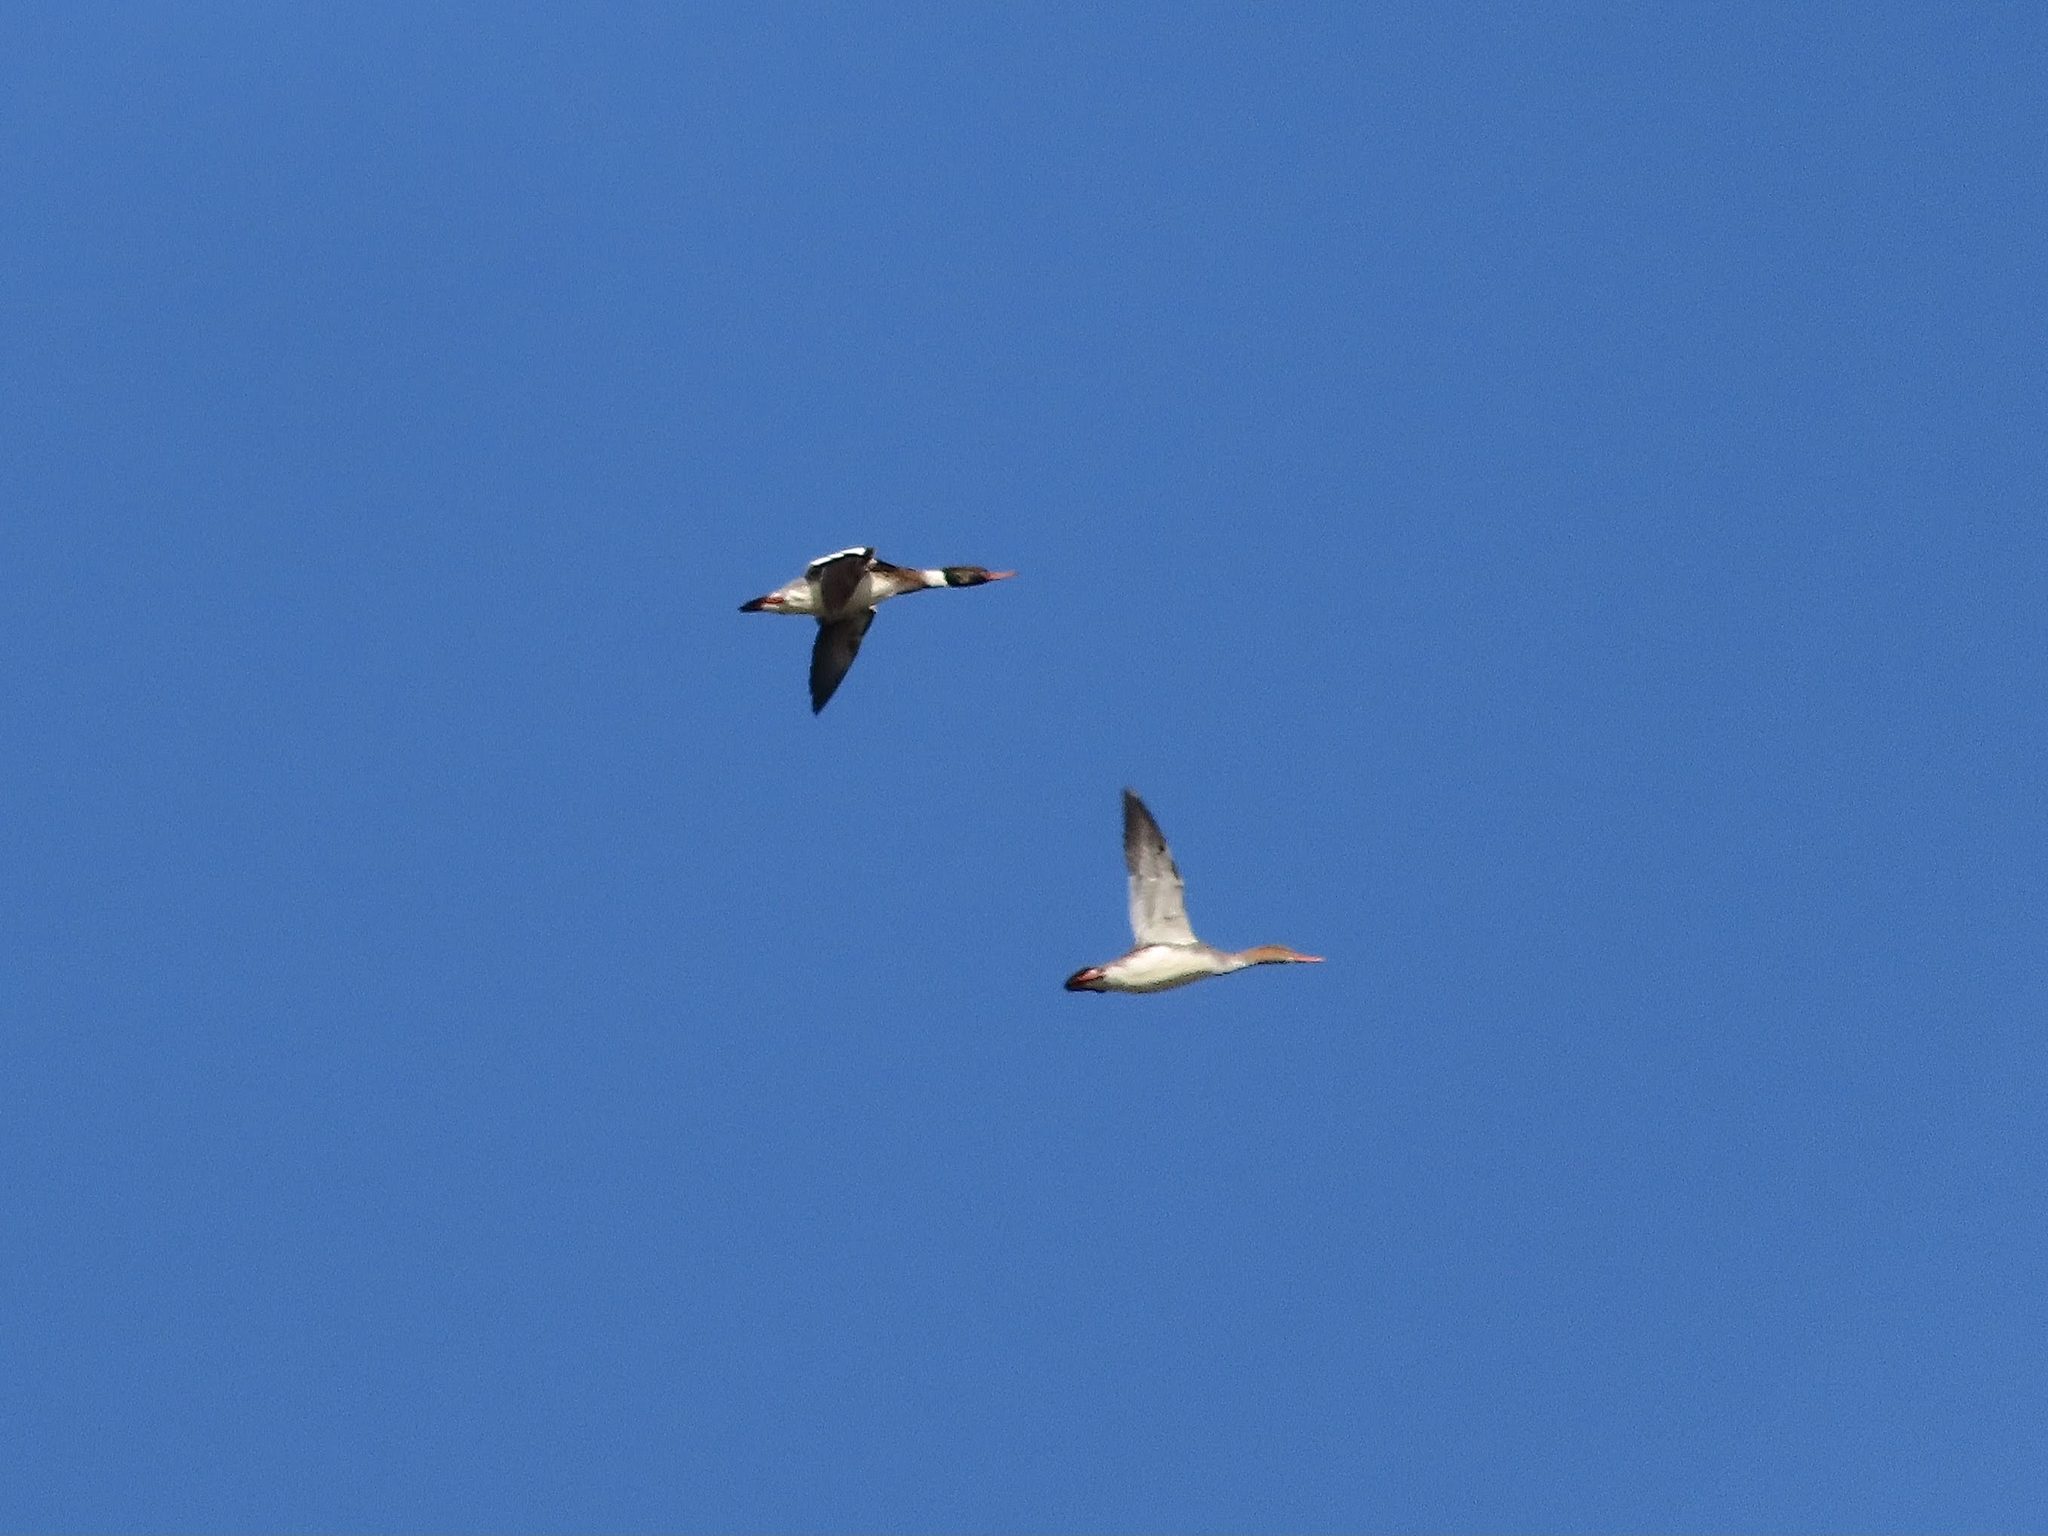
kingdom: Animalia
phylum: Chordata
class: Aves
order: Anseriformes
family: Anatidae
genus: Mergus
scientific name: Mergus serrator
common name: Red-breasted merganser
